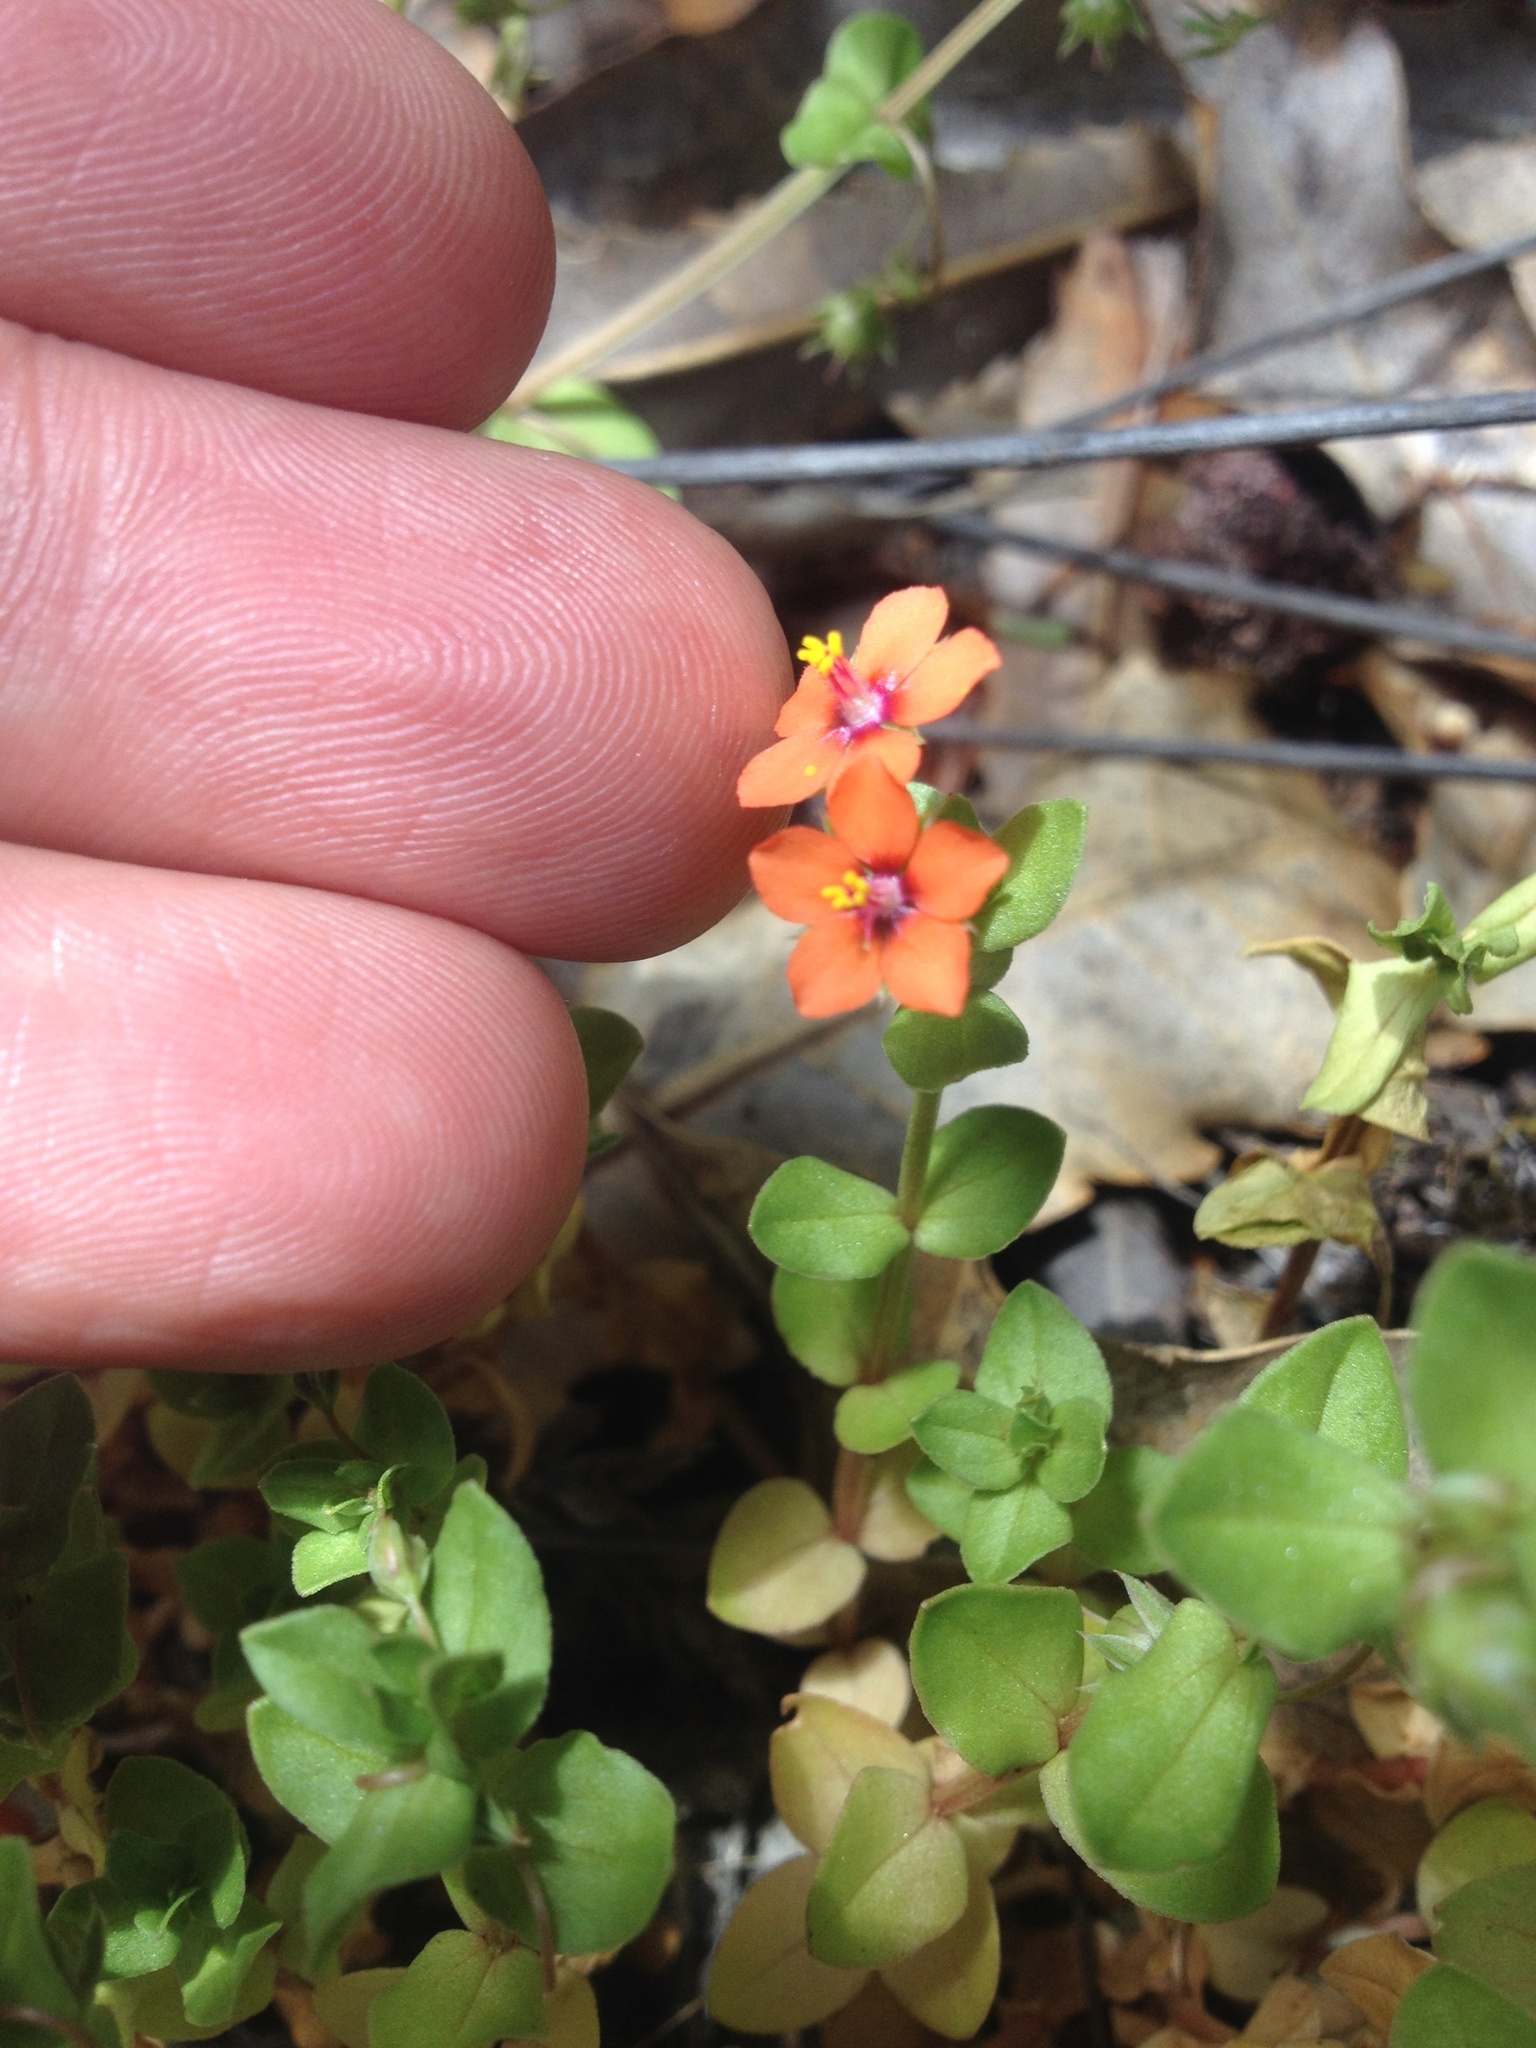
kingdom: Plantae
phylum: Tracheophyta
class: Magnoliopsida
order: Ericales
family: Primulaceae
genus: Lysimachia
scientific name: Lysimachia arvensis
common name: Scarlet pimpernel
